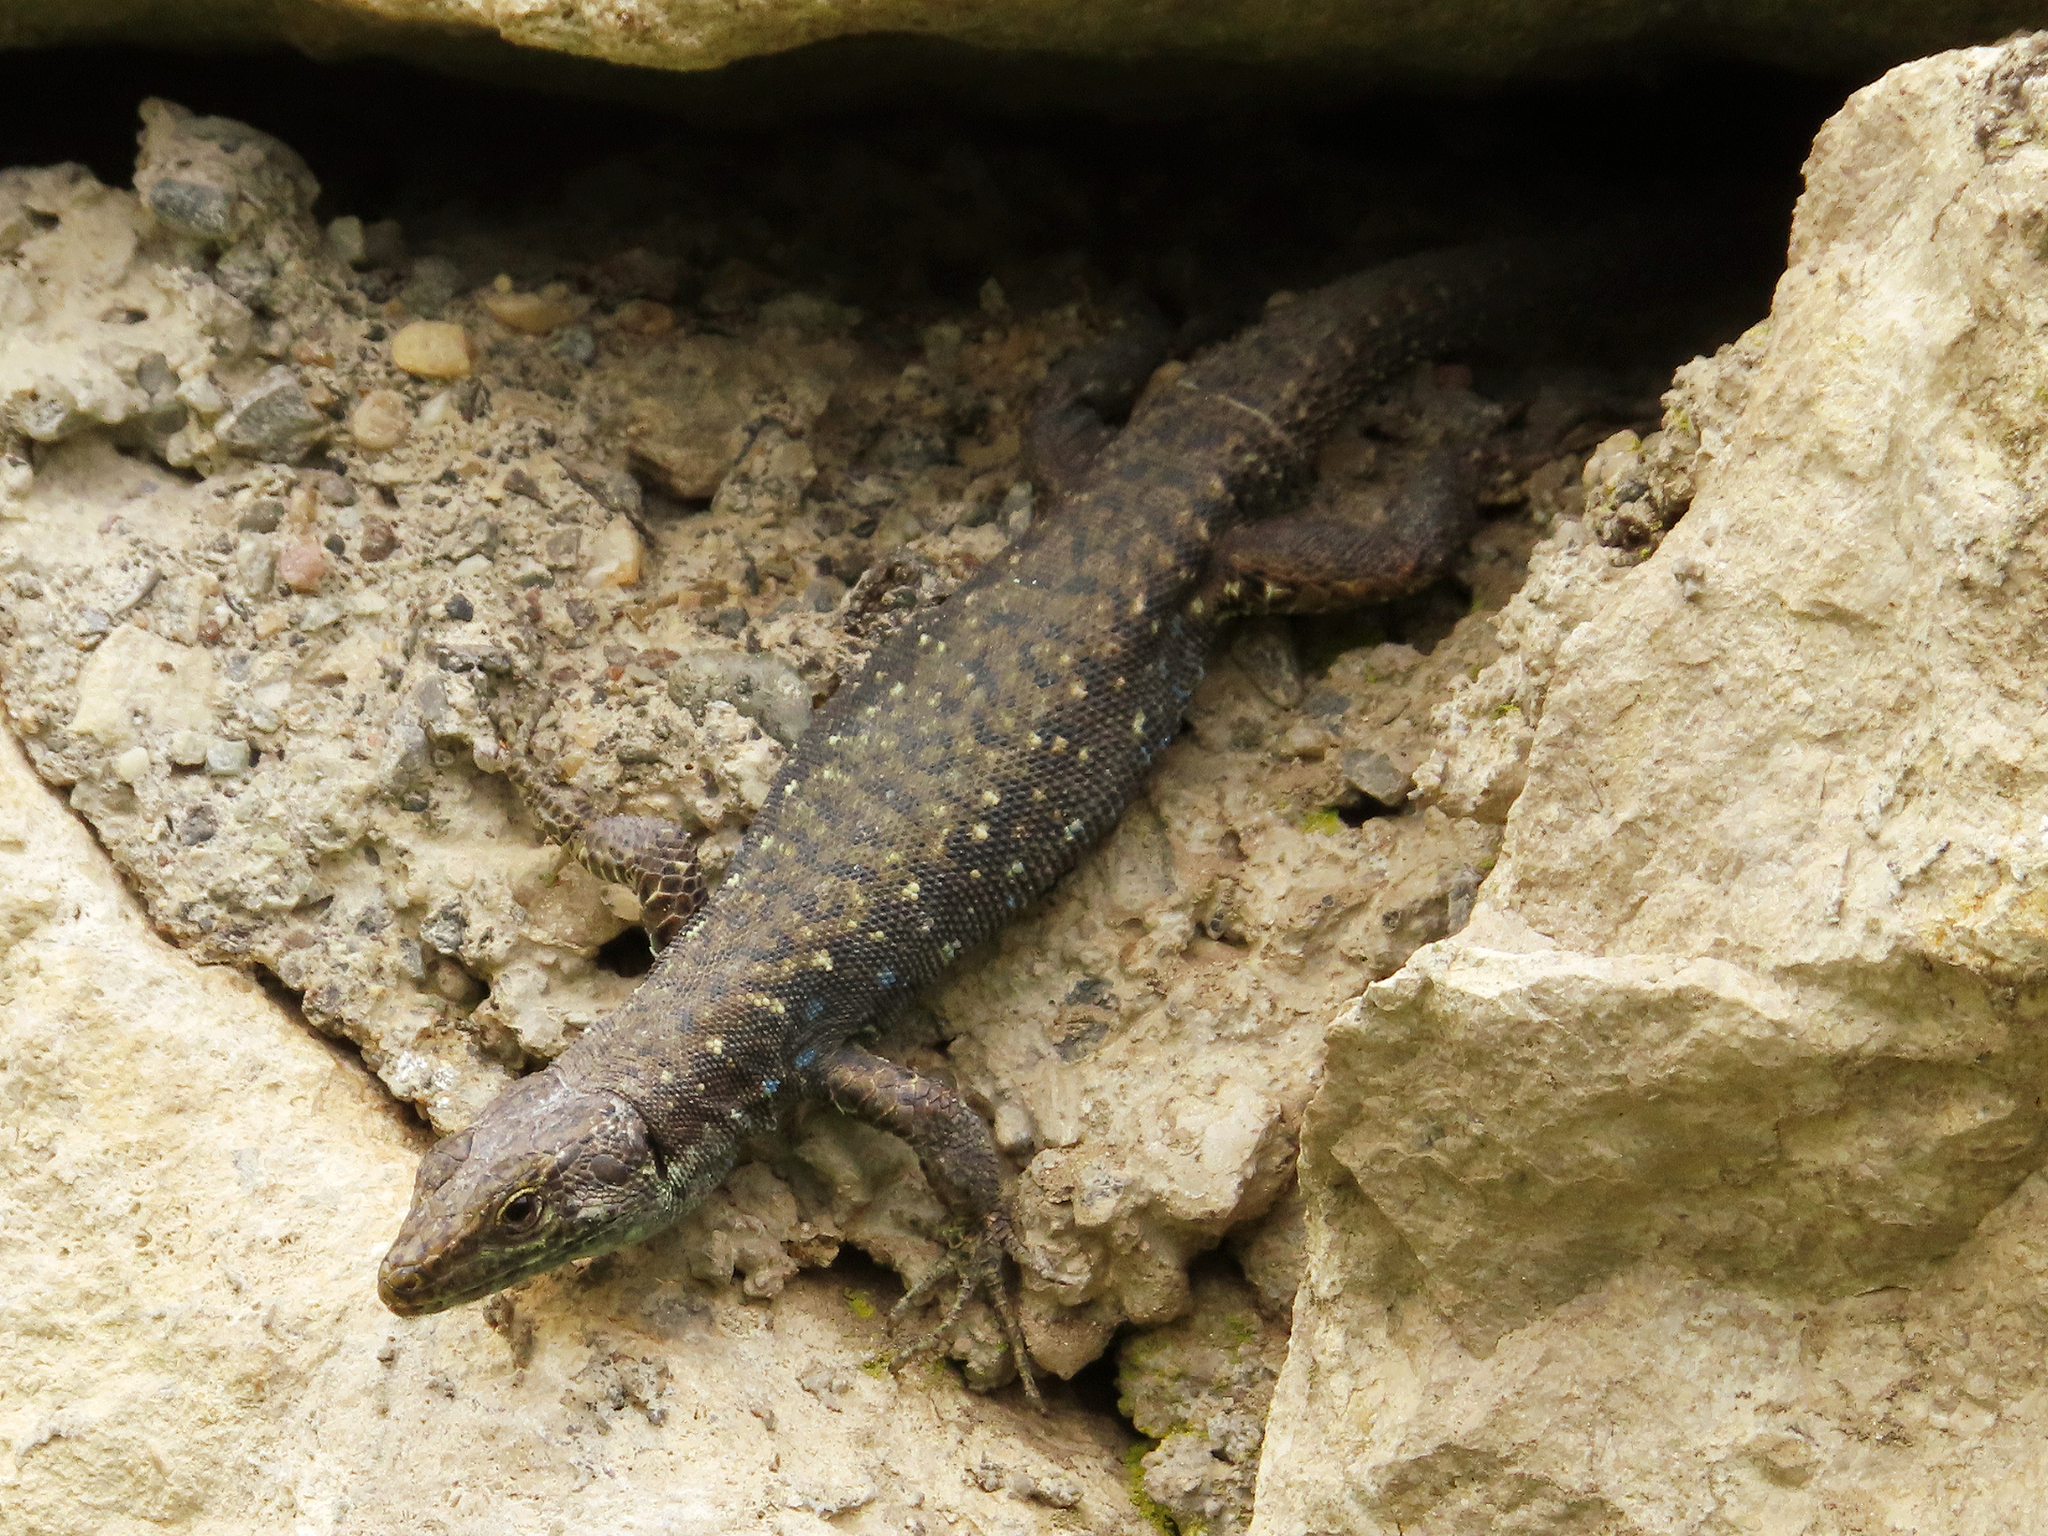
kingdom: Animalia
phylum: Chordata
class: Squamata
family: Lacertidae
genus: Darevskia
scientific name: Darevskia rudis
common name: Spiny-tailed lizard
